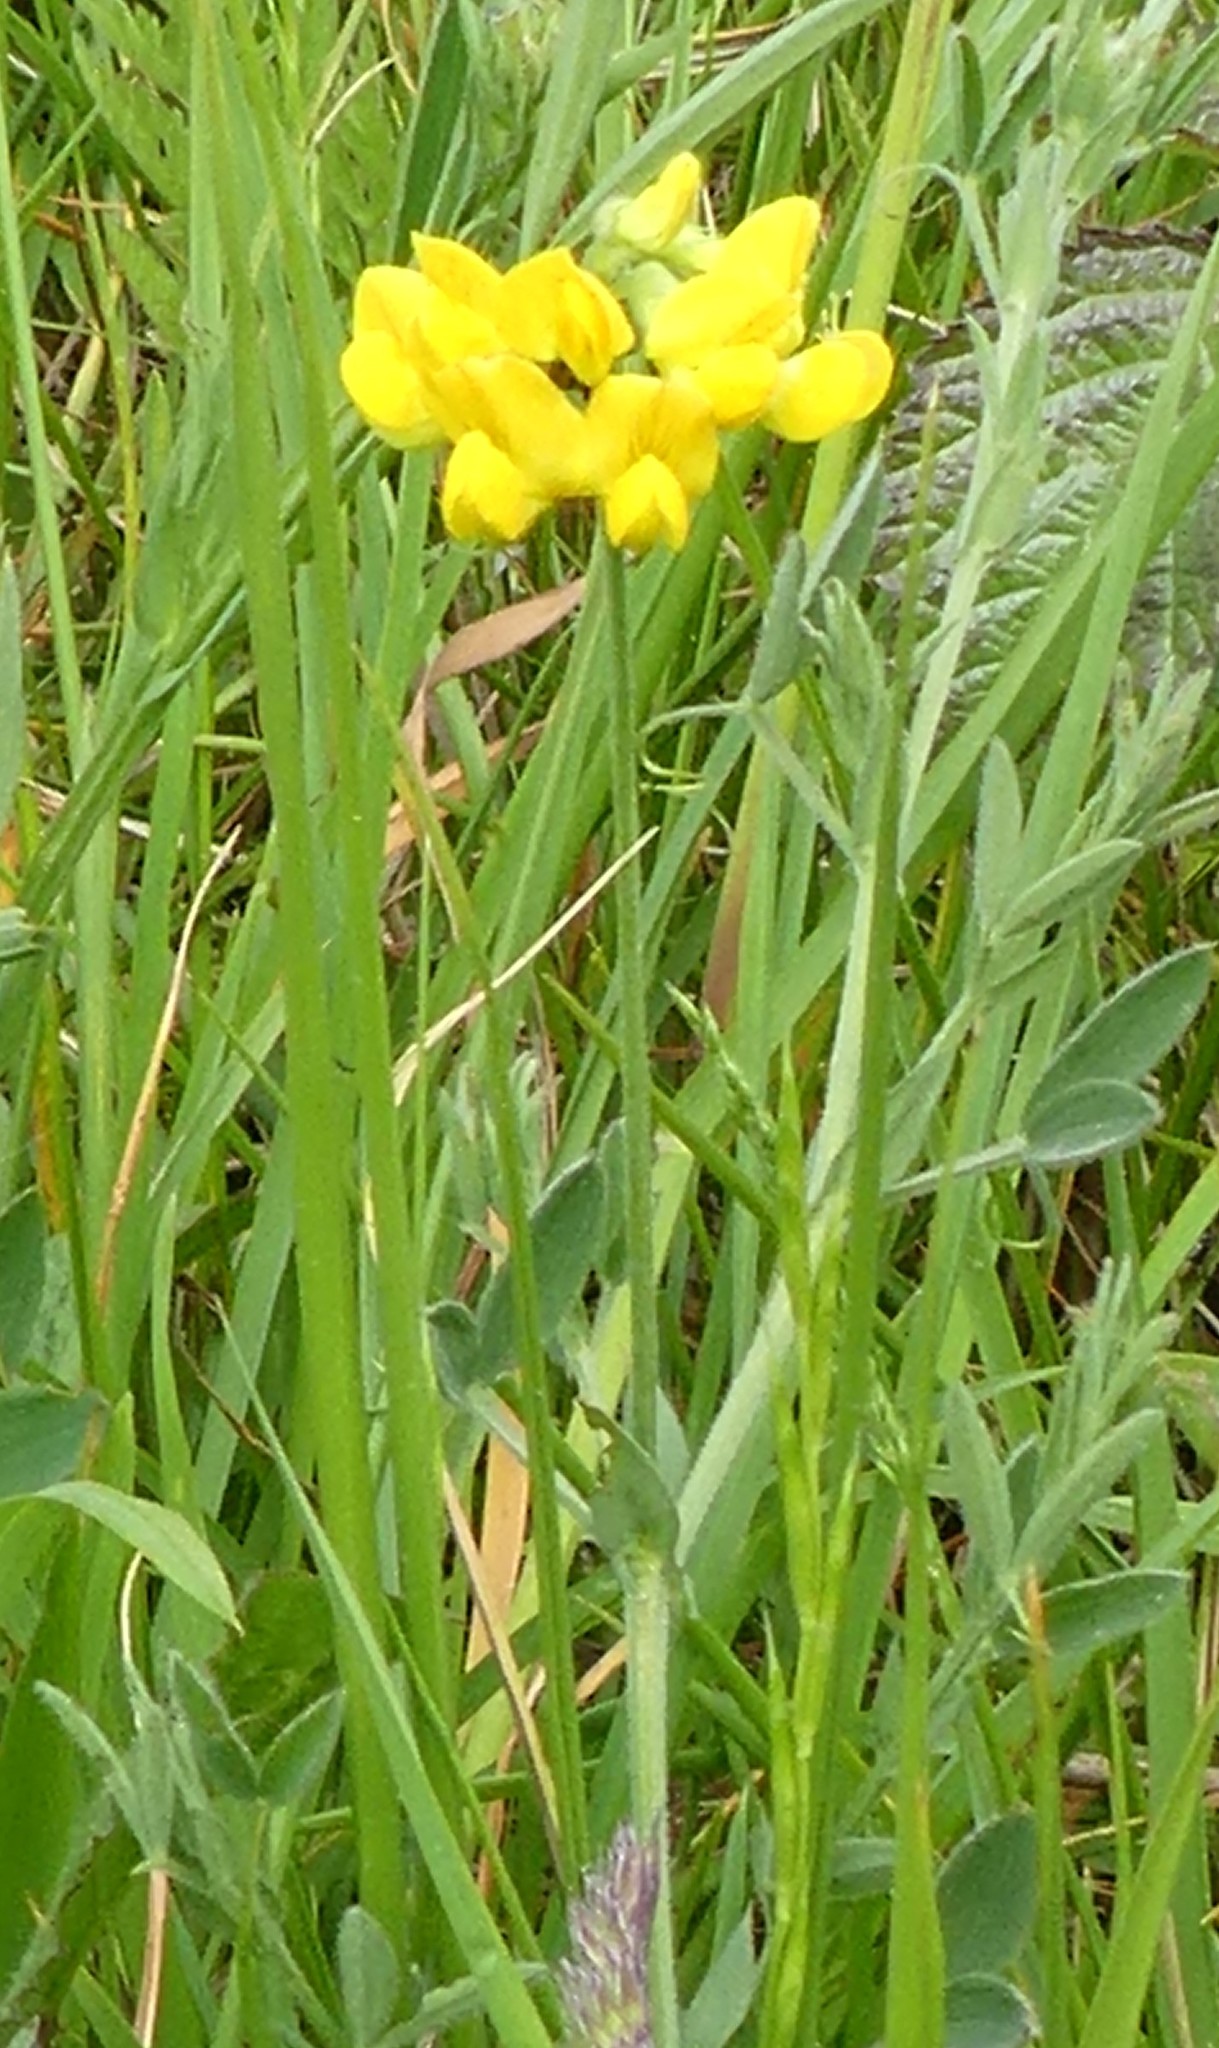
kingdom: Plantae
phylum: Tracheophyta
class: Magnoliopsida
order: Fabales
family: Fabaceae
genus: Lathyrus
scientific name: Lathyrus pratensis
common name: Meadow vetchling
